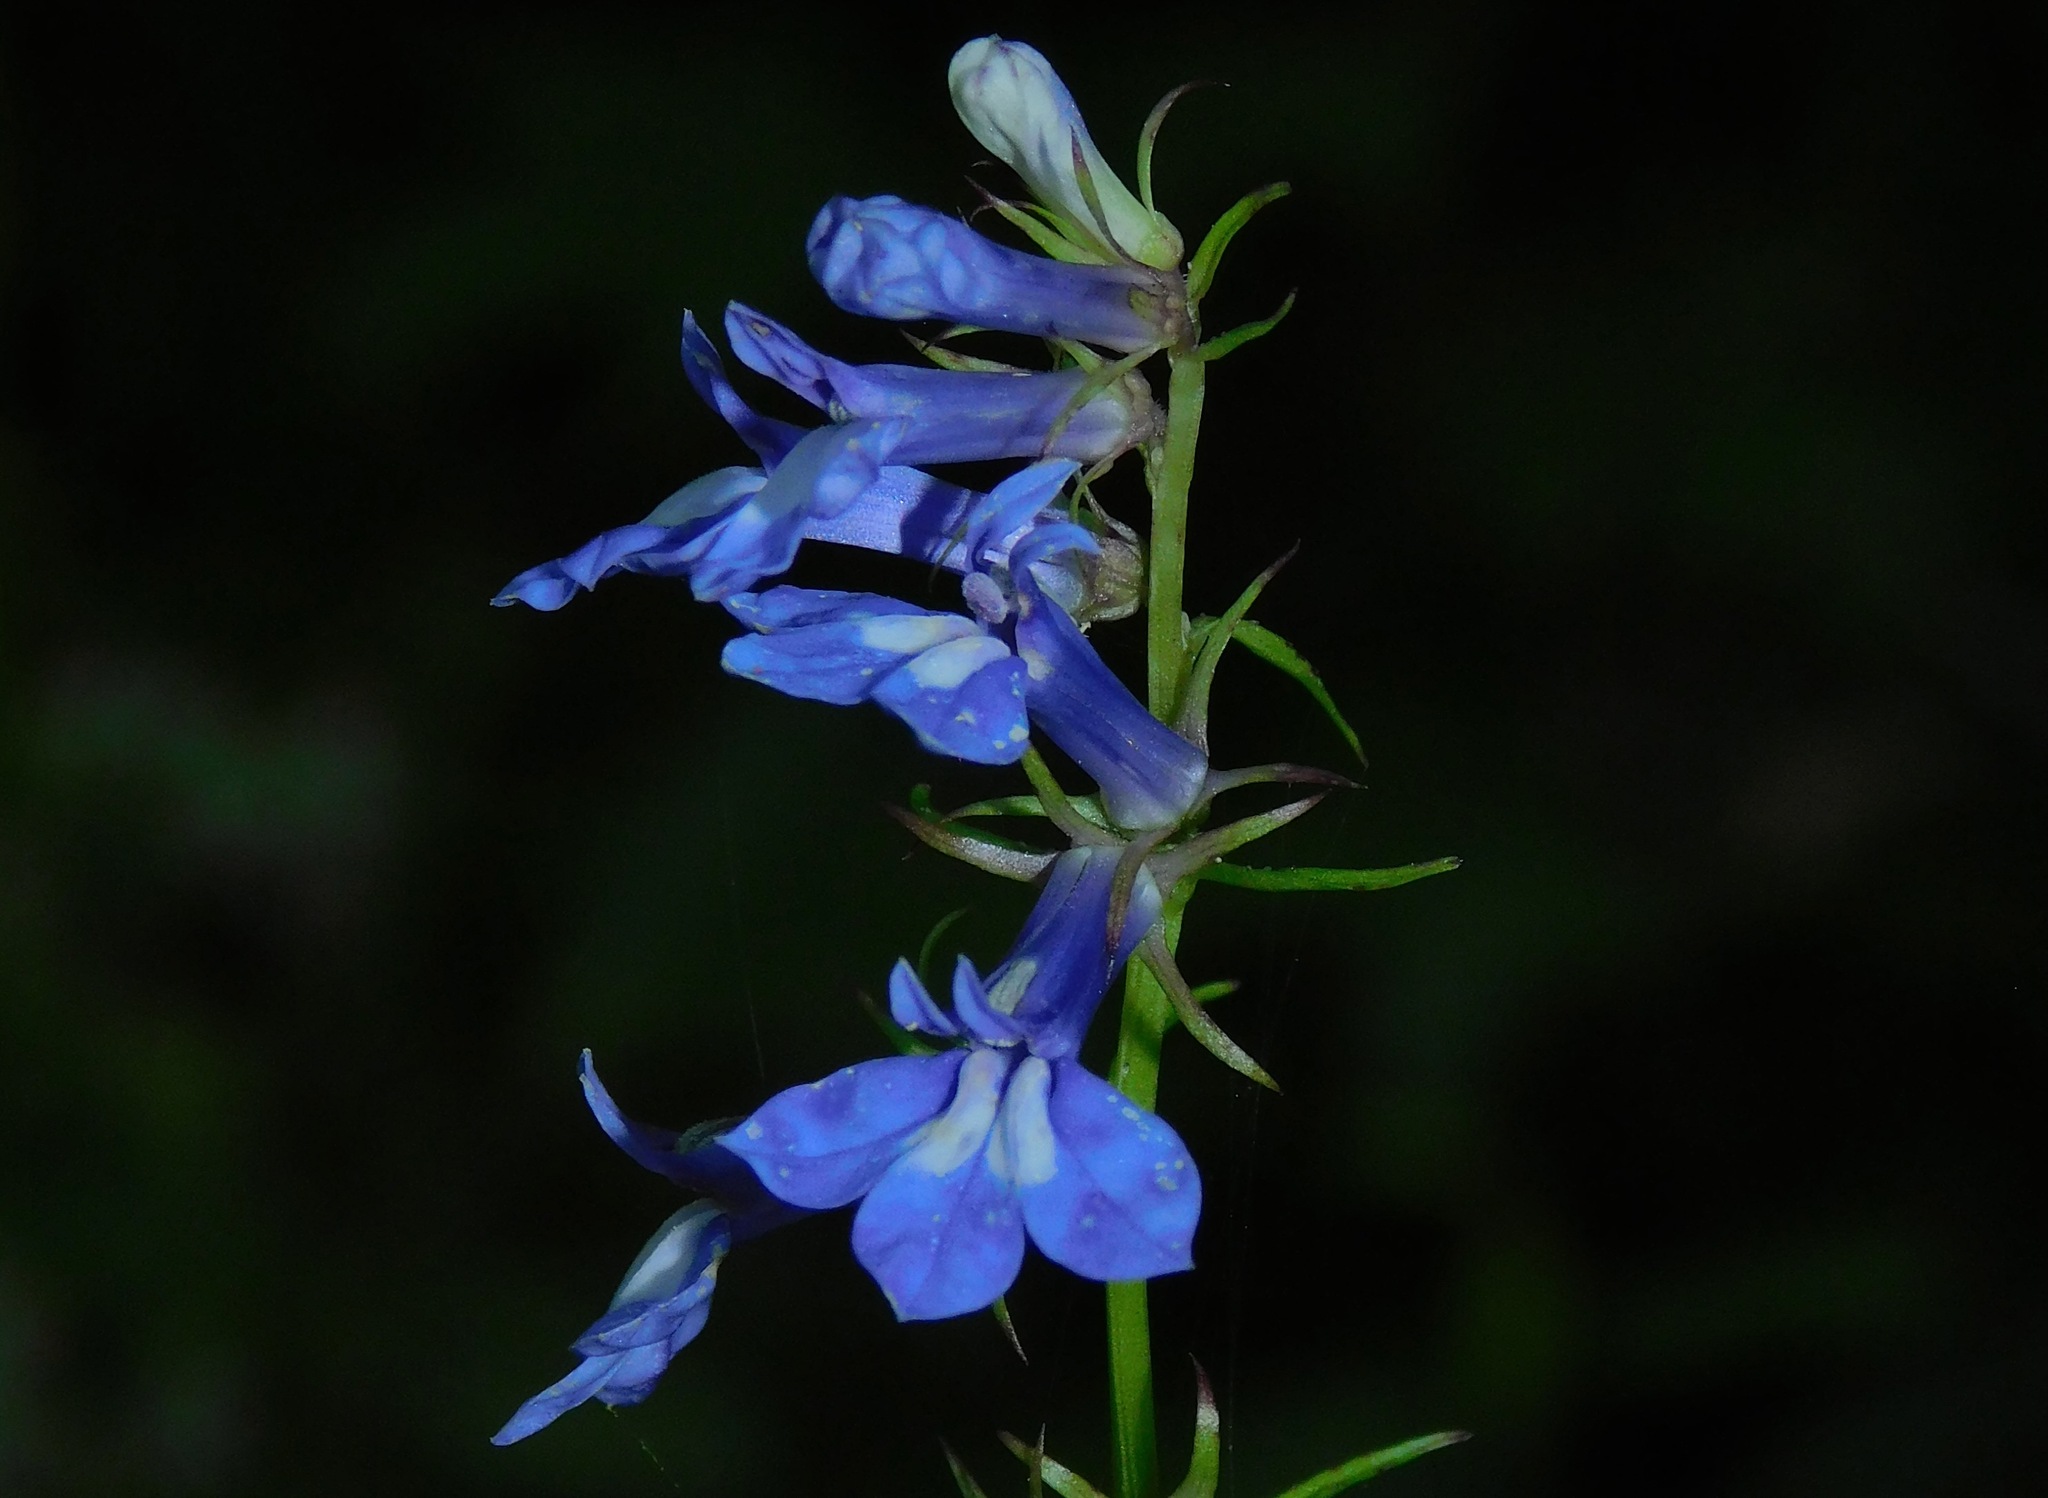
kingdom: Plantae
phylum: Tracheophyta
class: Magnoliopsida
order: Asterales
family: Campanulaceae
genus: Lobelia
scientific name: Lobelia amoena
